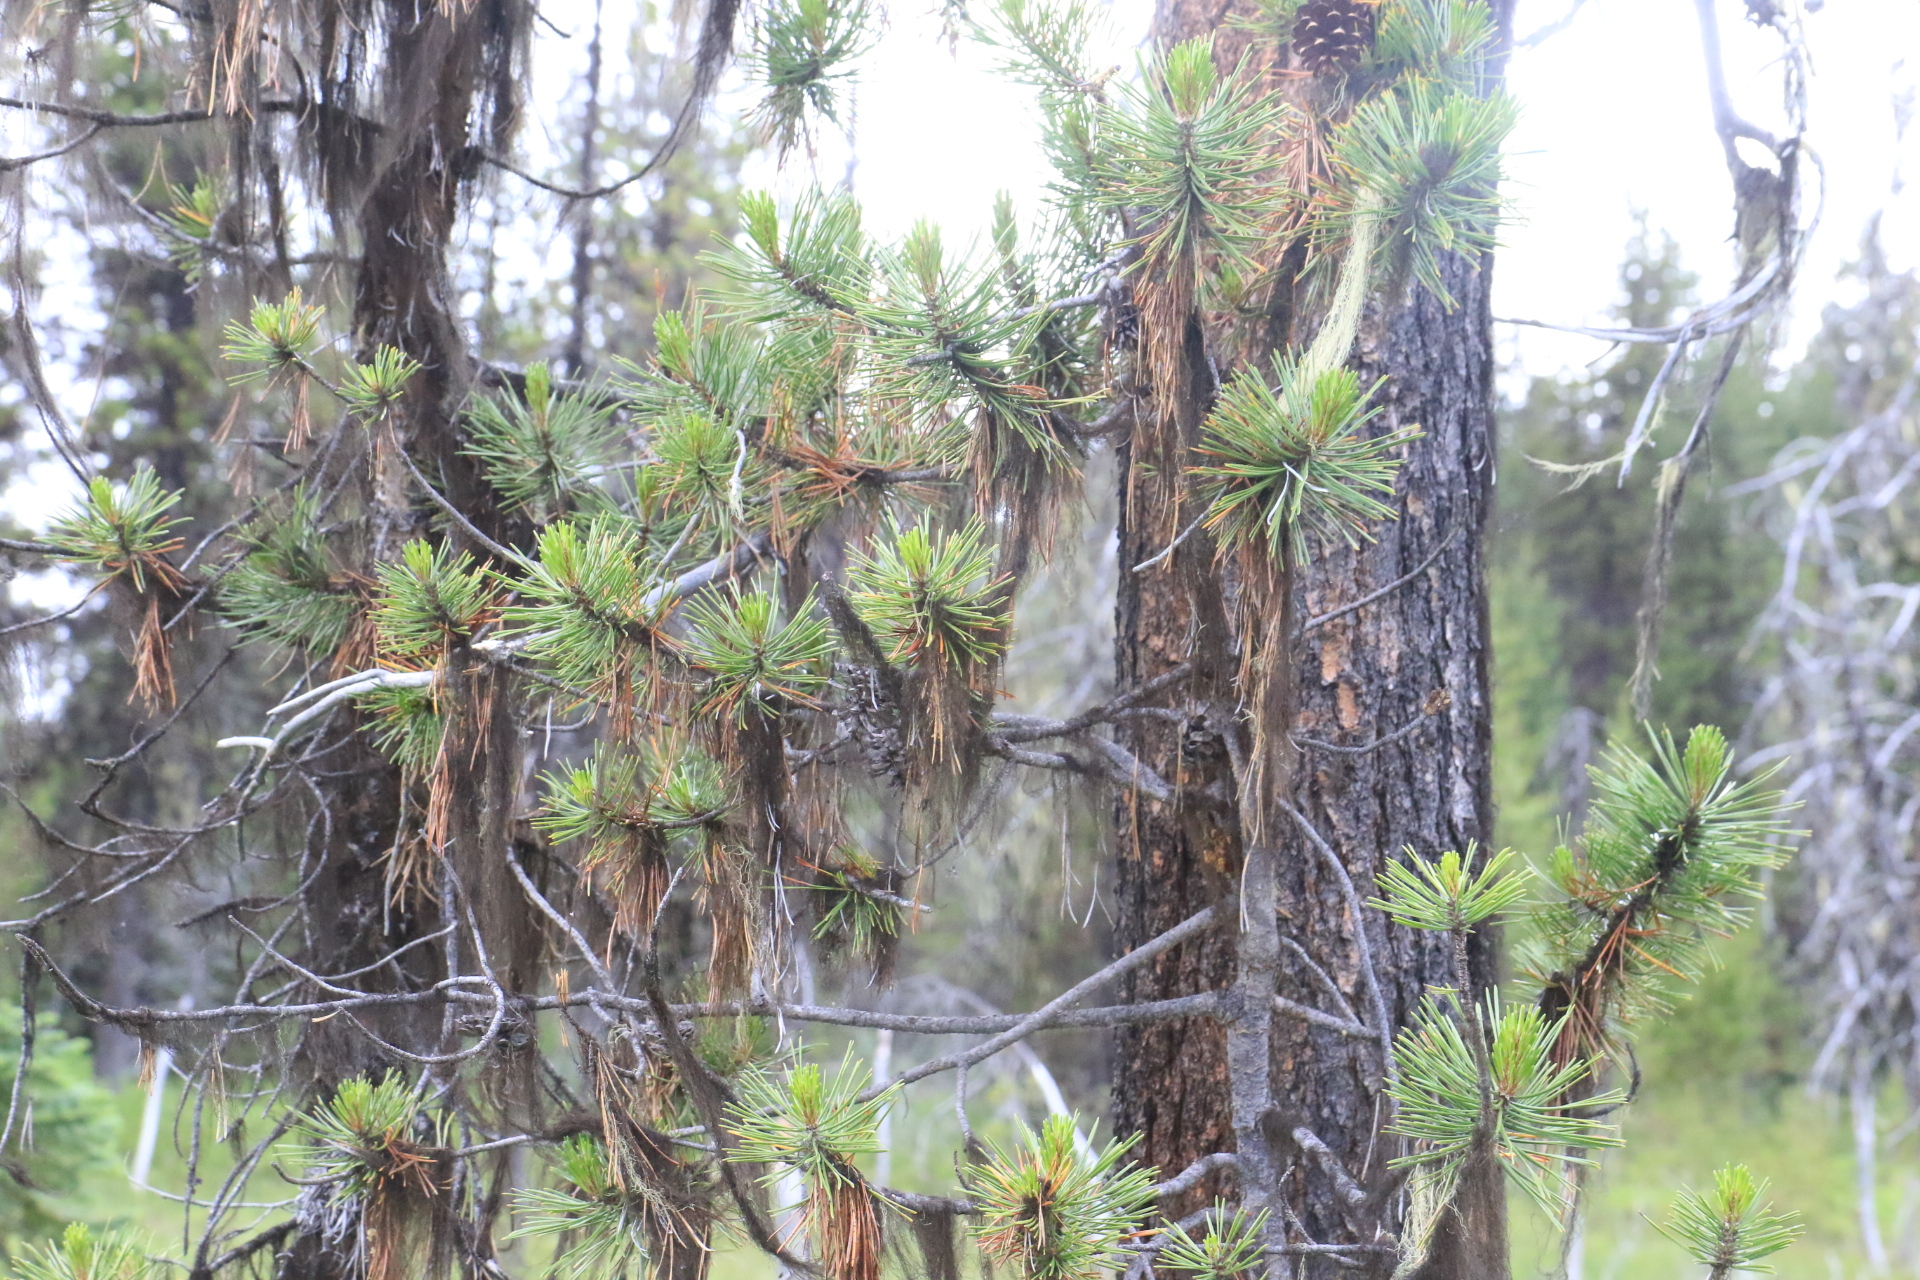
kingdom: Plantae
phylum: Tracheophyta
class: Pinopsida
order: Pinales
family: Pinaceae
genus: Pinus
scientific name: Pinus contorta
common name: Lodgepole pine
